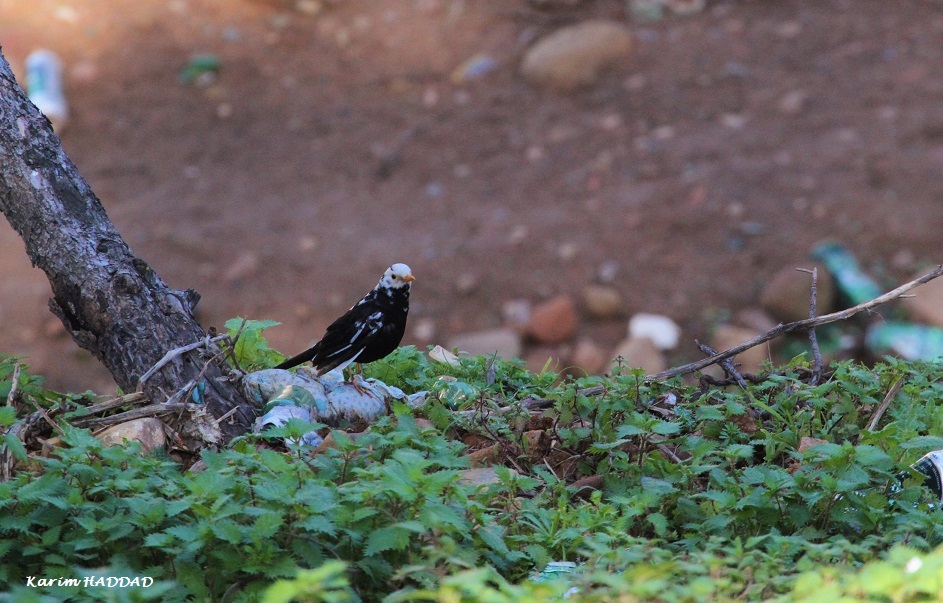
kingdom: Animalia
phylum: Chordata
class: Aves
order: Passeriformes
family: Turdidae
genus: Turdus
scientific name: Turdus merula
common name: Common blackbird
